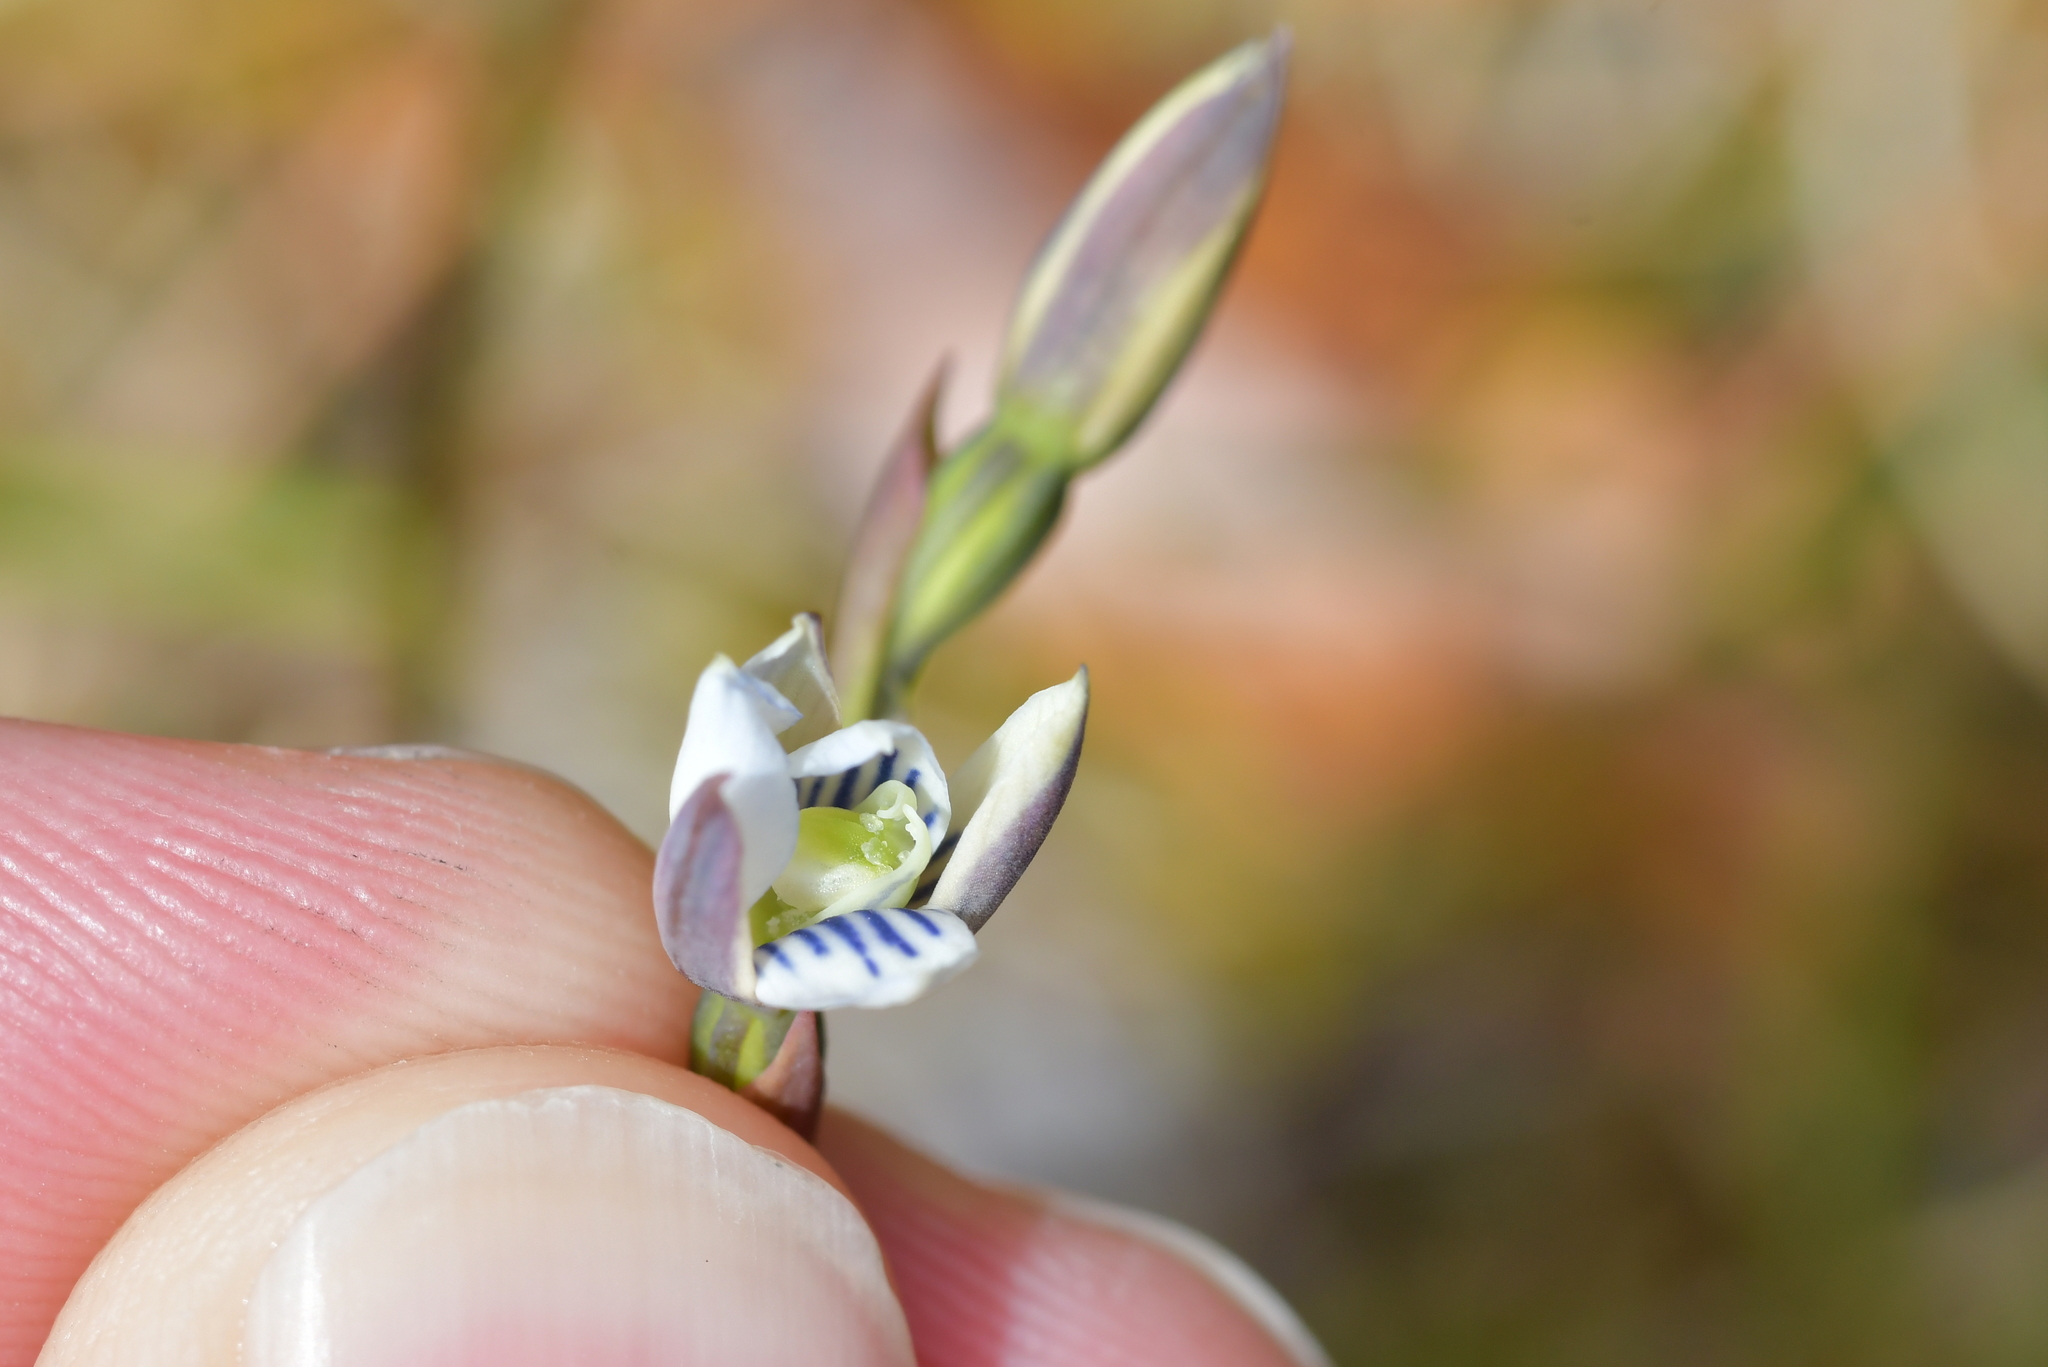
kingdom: Plantae
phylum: Tracheophyta
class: Liliopsida
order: Asparagales
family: Orchidaceae
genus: Thelymitra
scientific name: Thelymitra cyanea
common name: Blue sun-orchid
